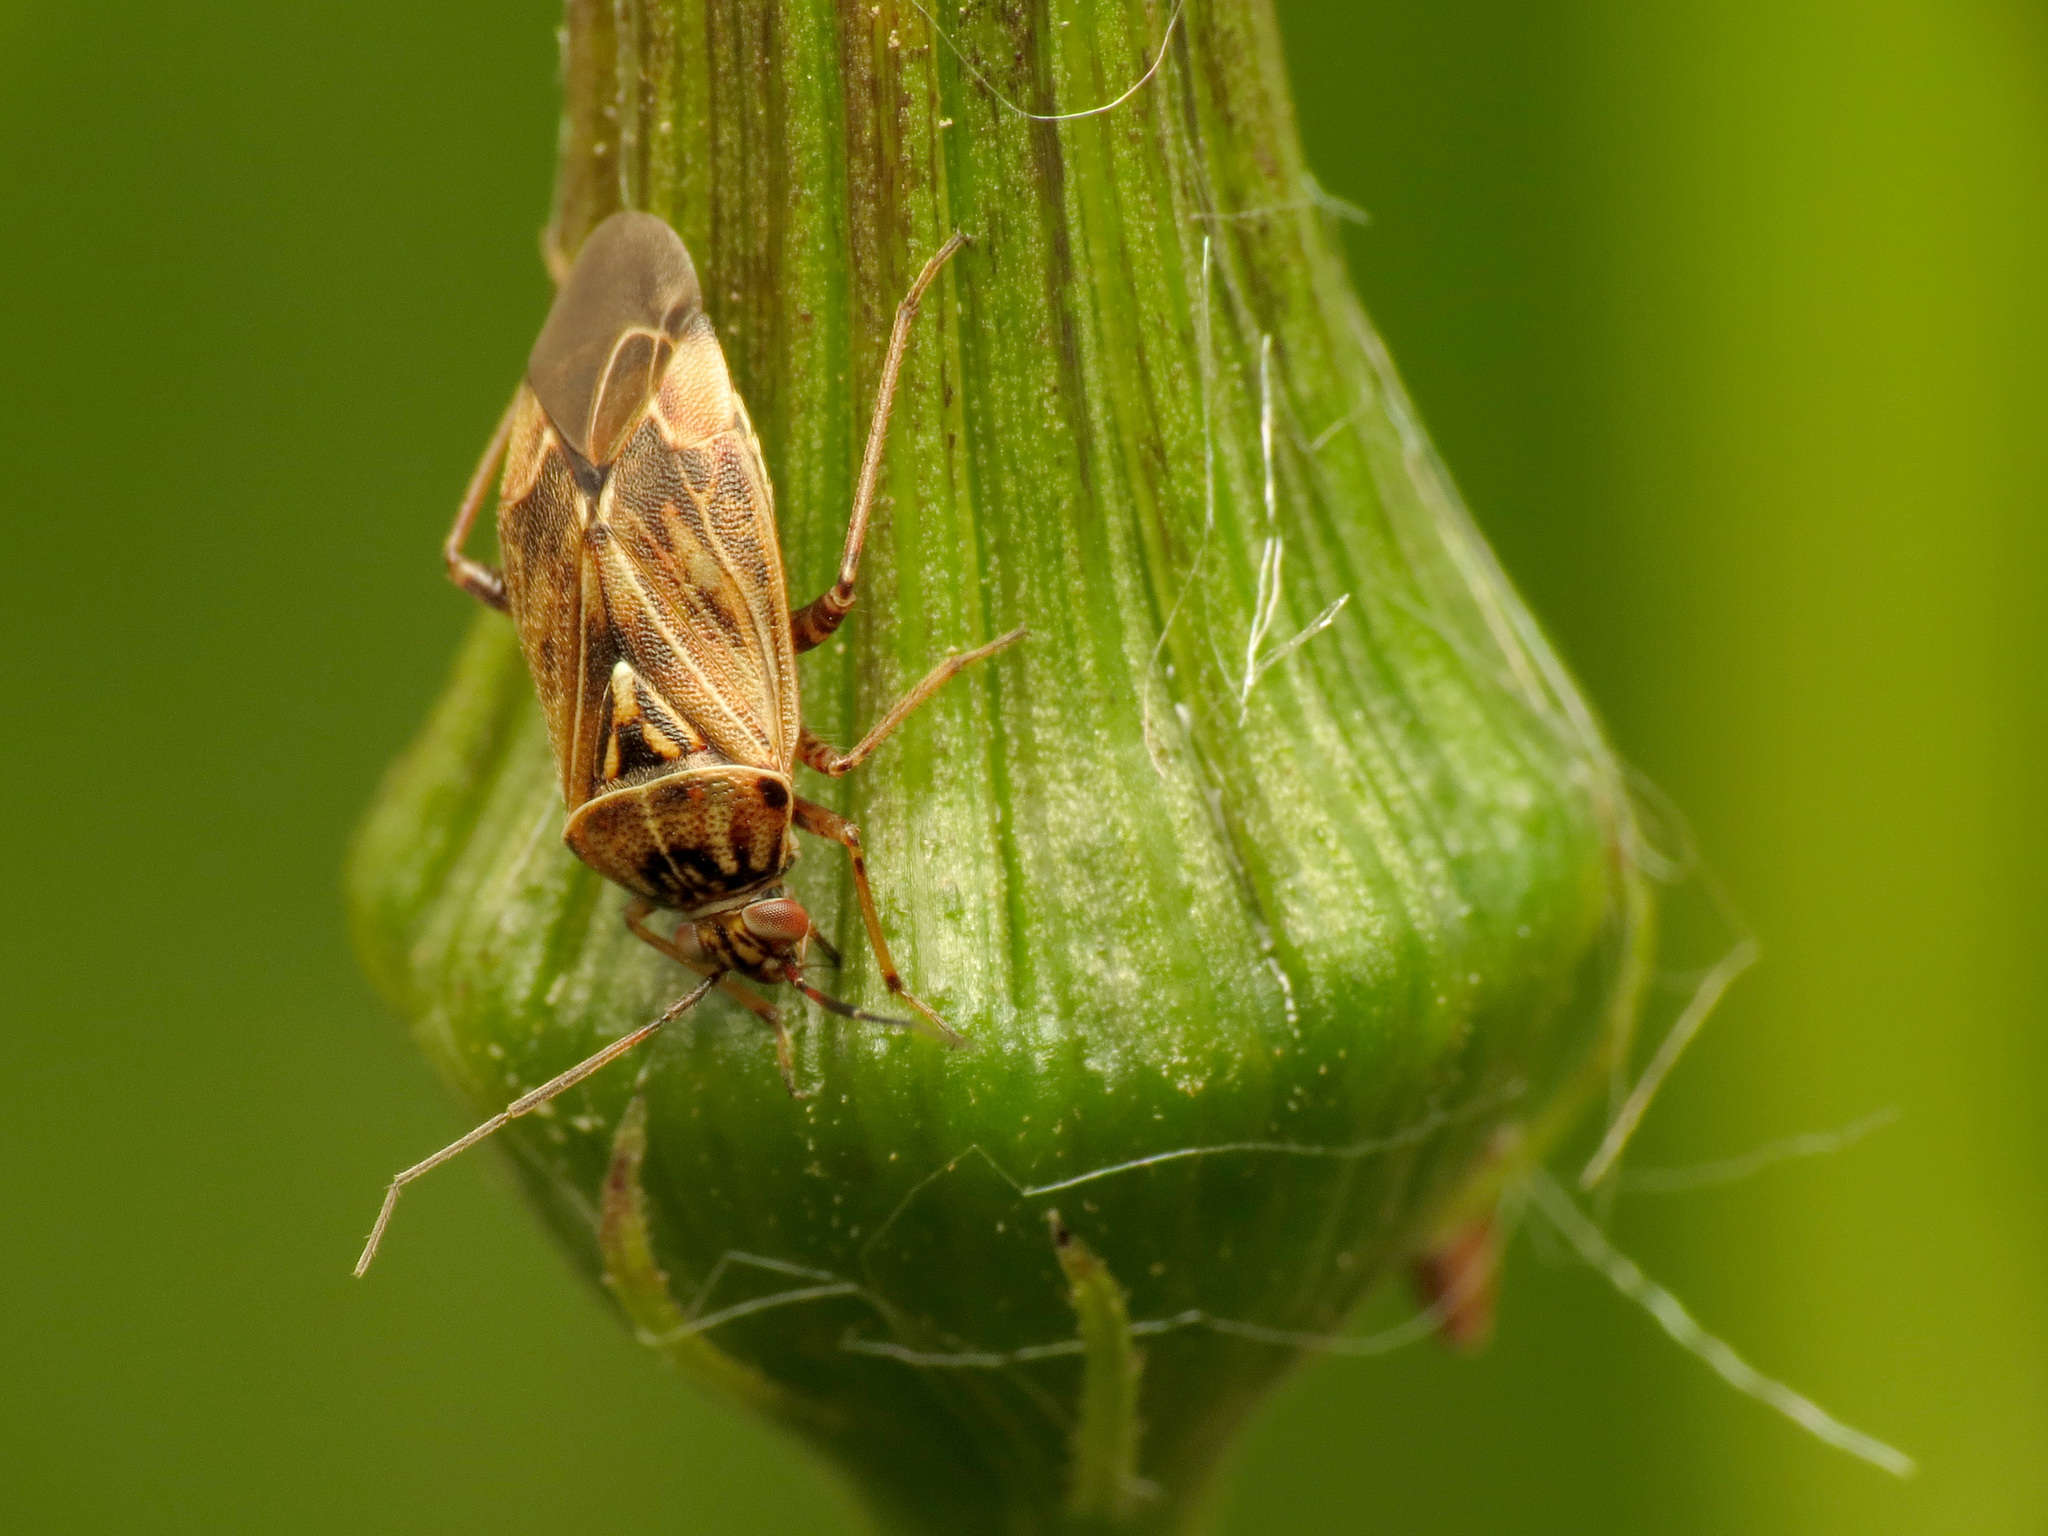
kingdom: Animalia
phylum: Arthropoda
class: Insecta
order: Hemiptera
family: Miridae
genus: Lygus
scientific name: Lygus lineolaris
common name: North american tarnished plant bug
